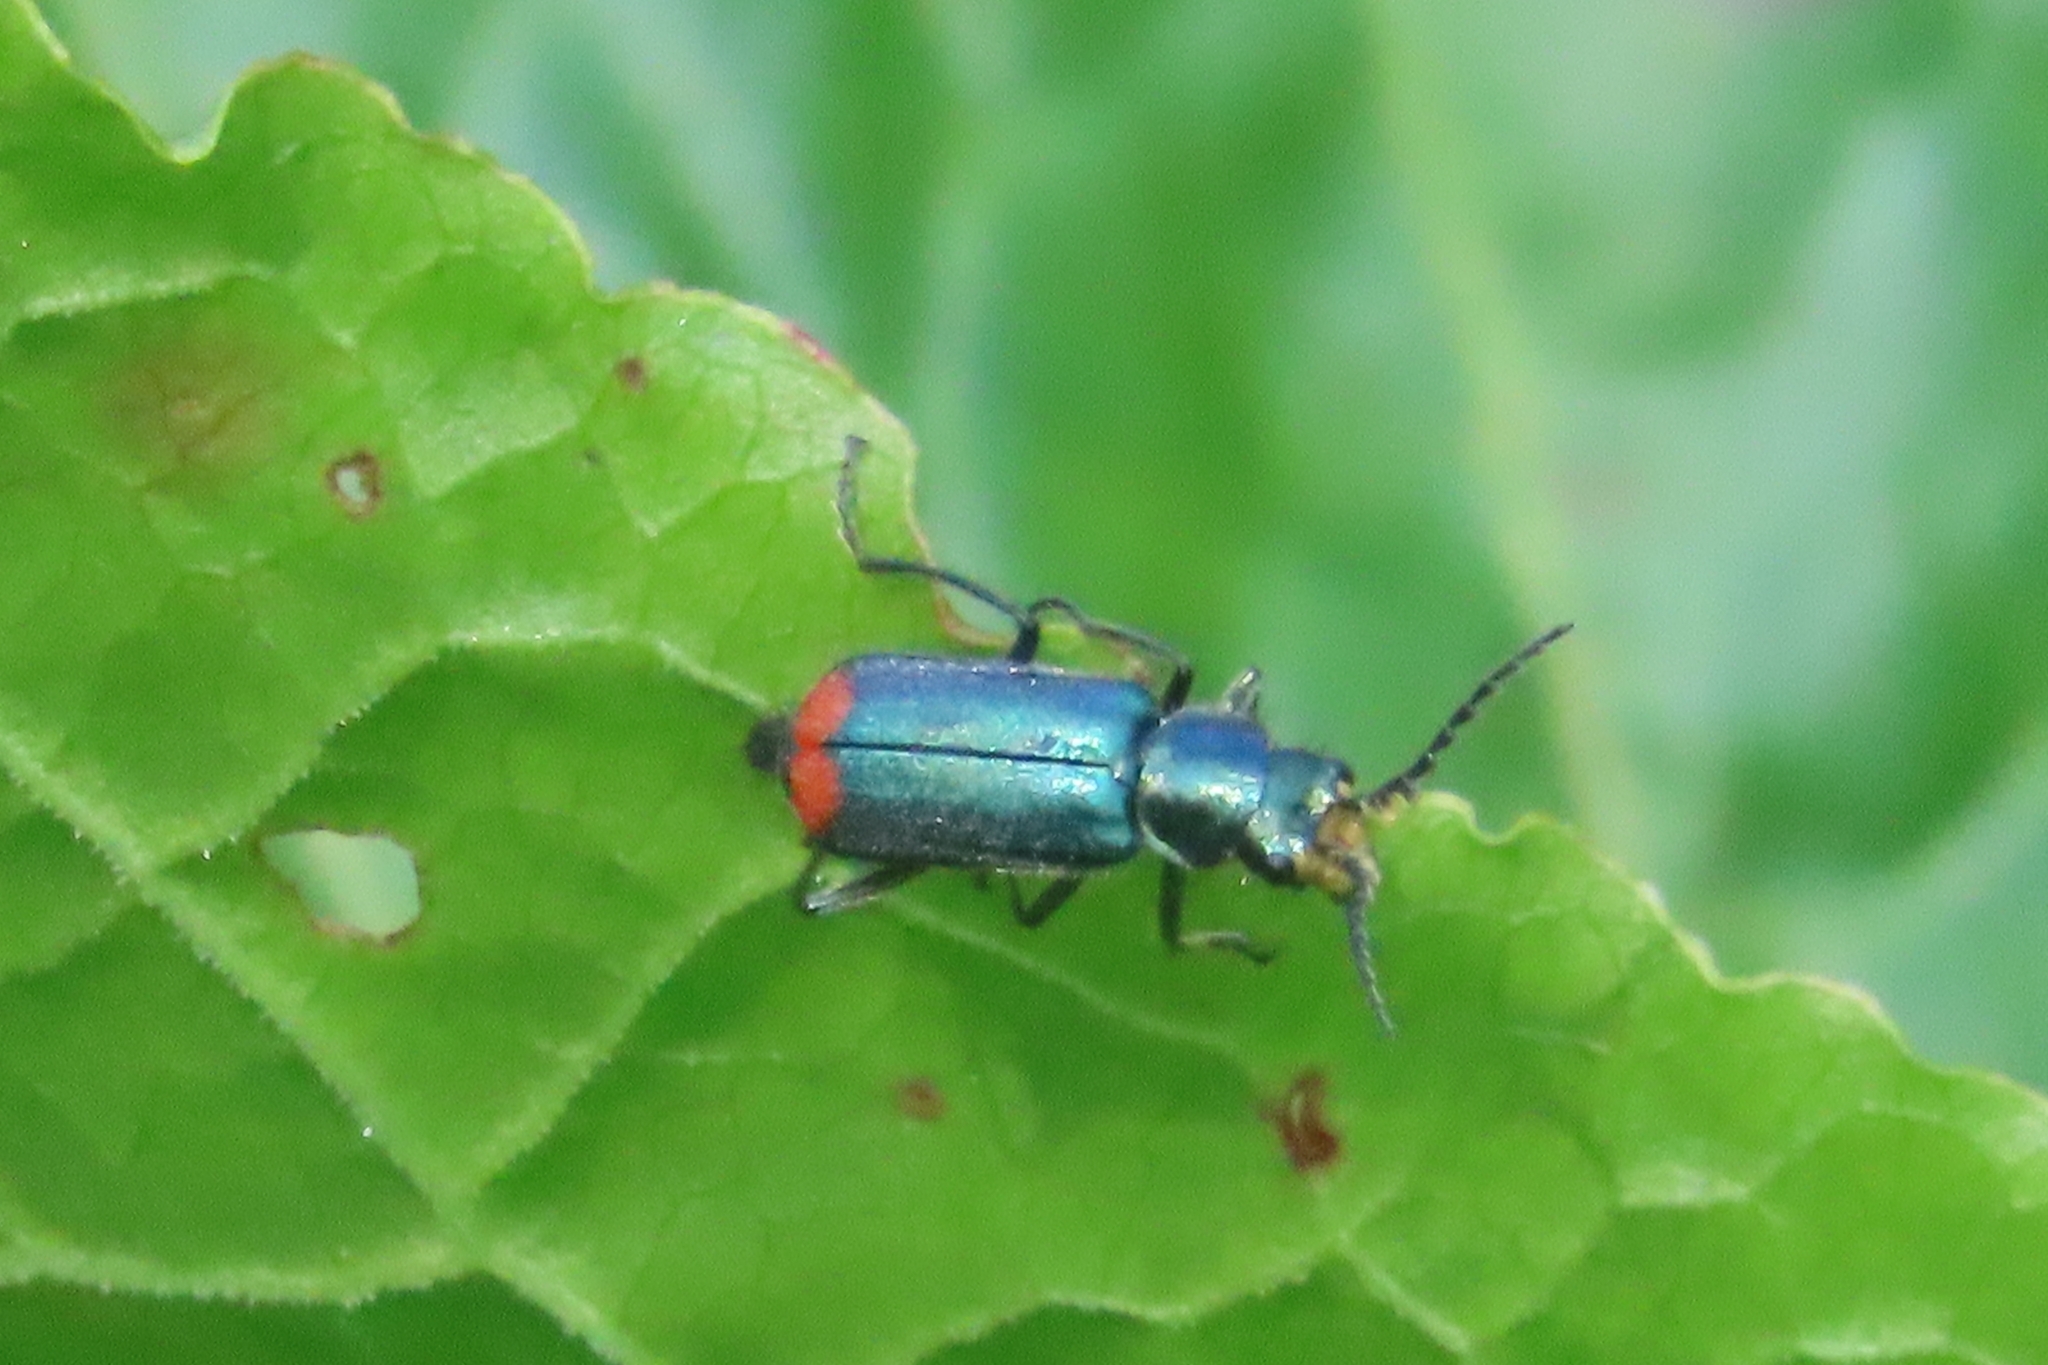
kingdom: Animalia
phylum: Arthropoda
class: Insecta
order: Coleoptera
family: Melyridae
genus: Malachius
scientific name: Malachius bipustulatus
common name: Malachite beetle
